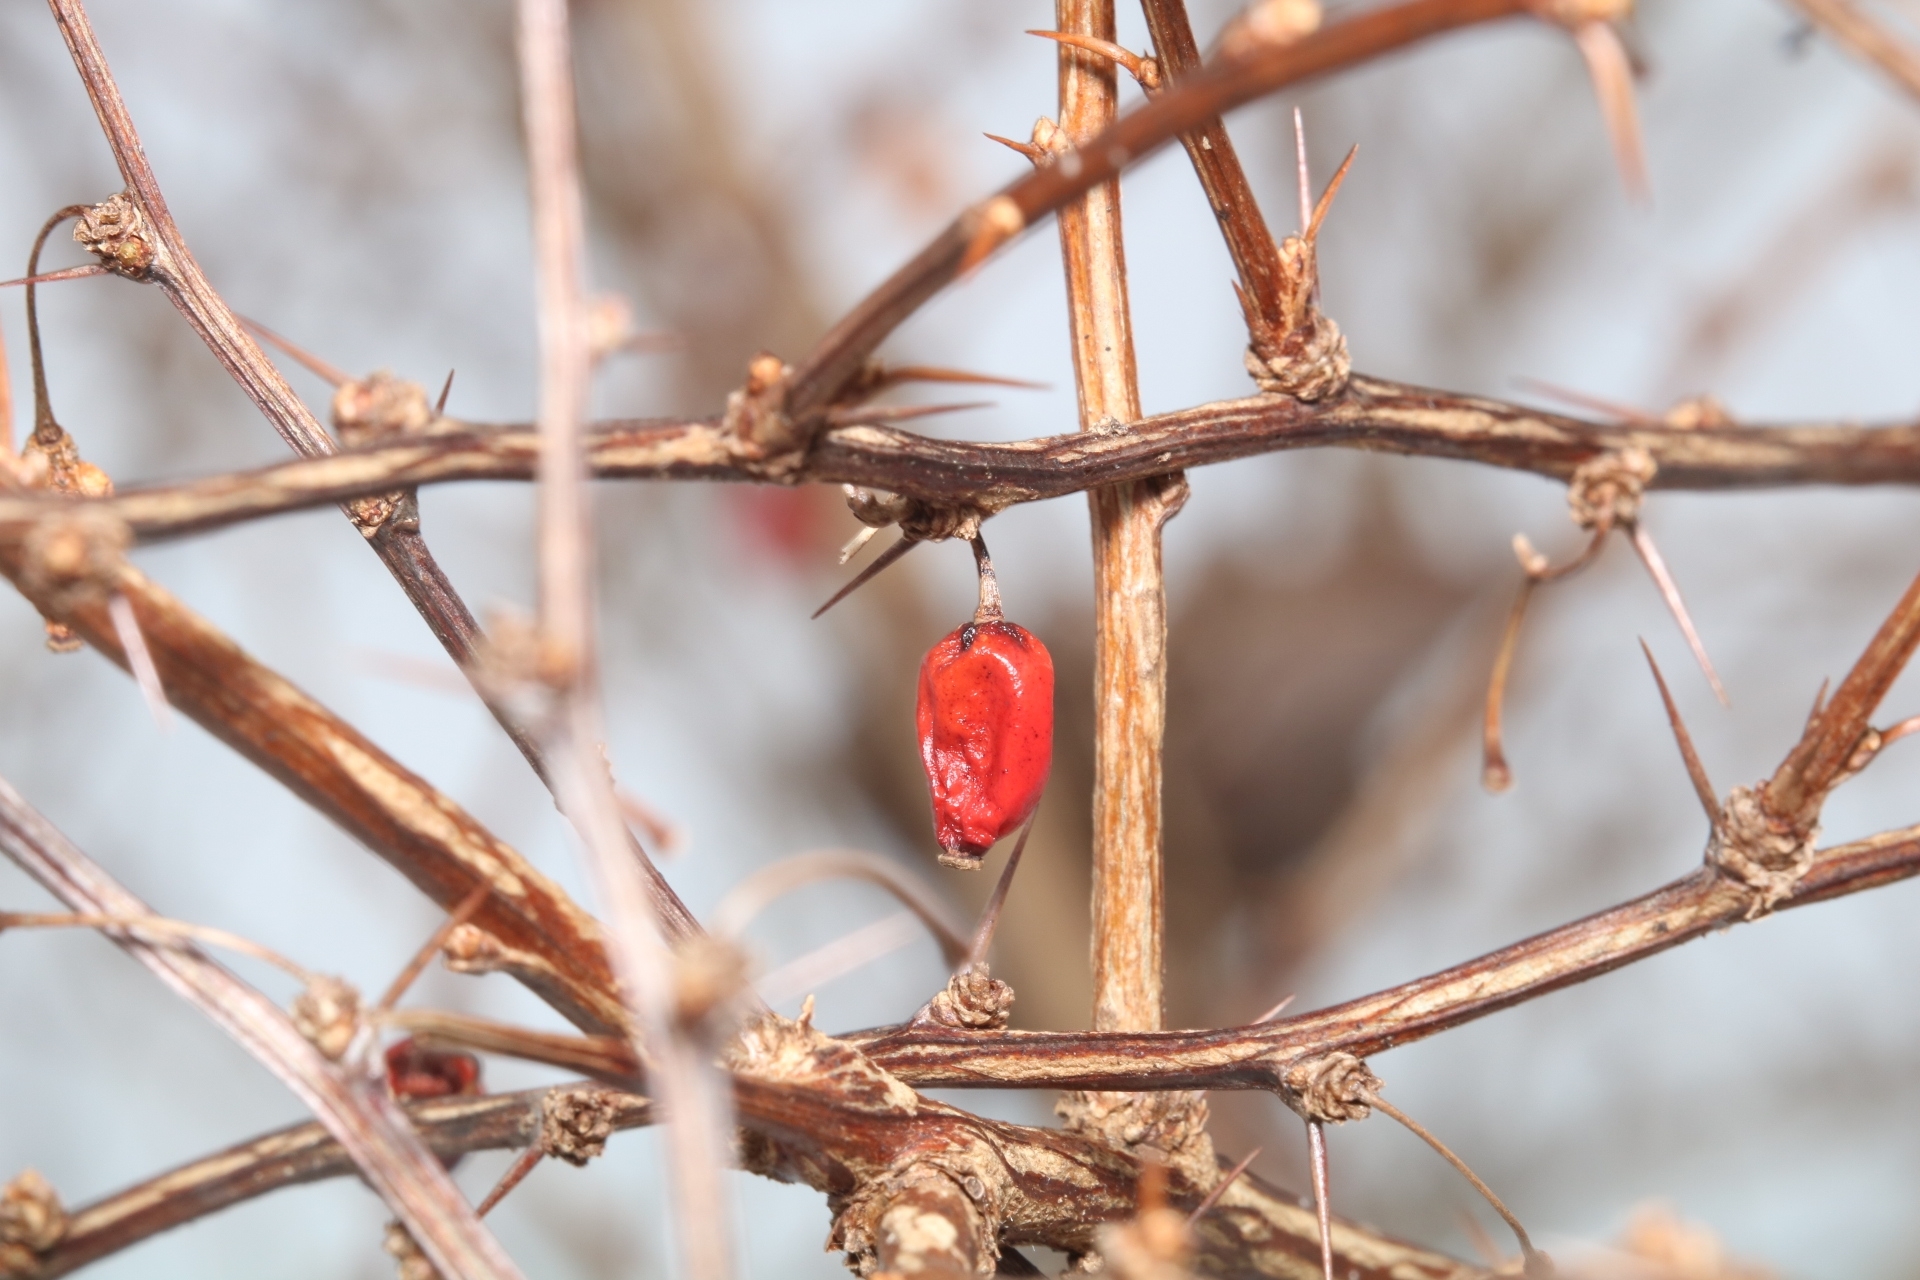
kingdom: Plantae
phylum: Tracheophyta
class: Magnoliopsida
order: Ranunculales
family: Berberidaceae
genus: Berberis
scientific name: Berberis thunbergii
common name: Japanese barberry
